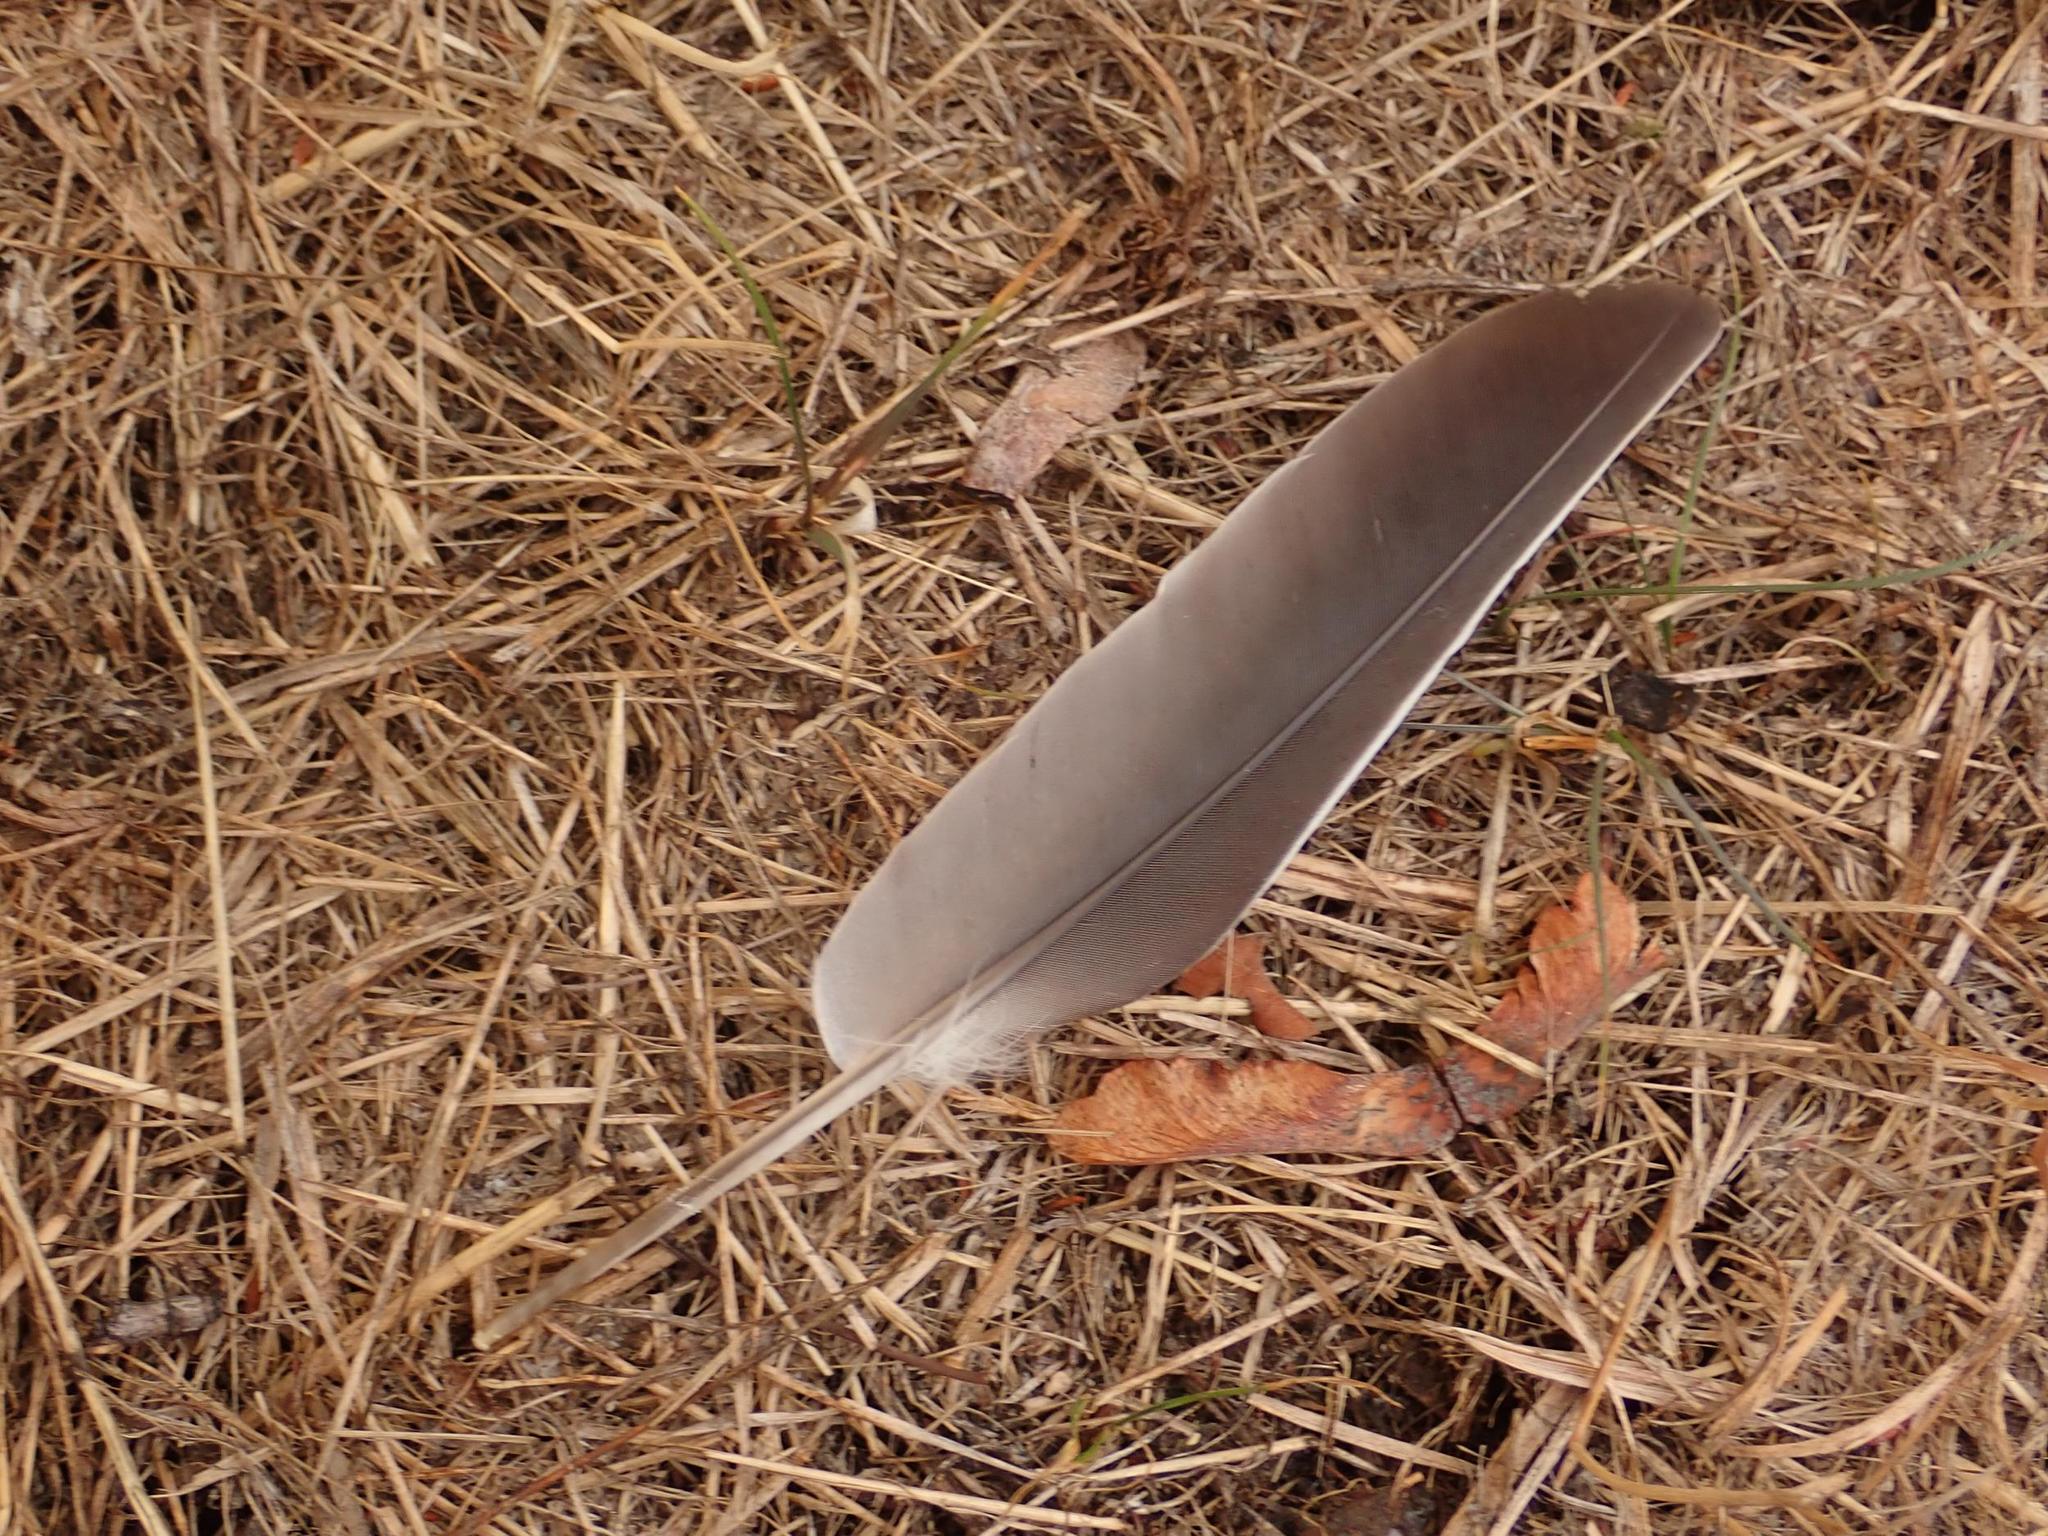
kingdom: Animalia
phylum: Chordata
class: Aves
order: Columbiformes
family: Columbidae
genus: Columba
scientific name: Columba palumbus
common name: Common wood pigeon
